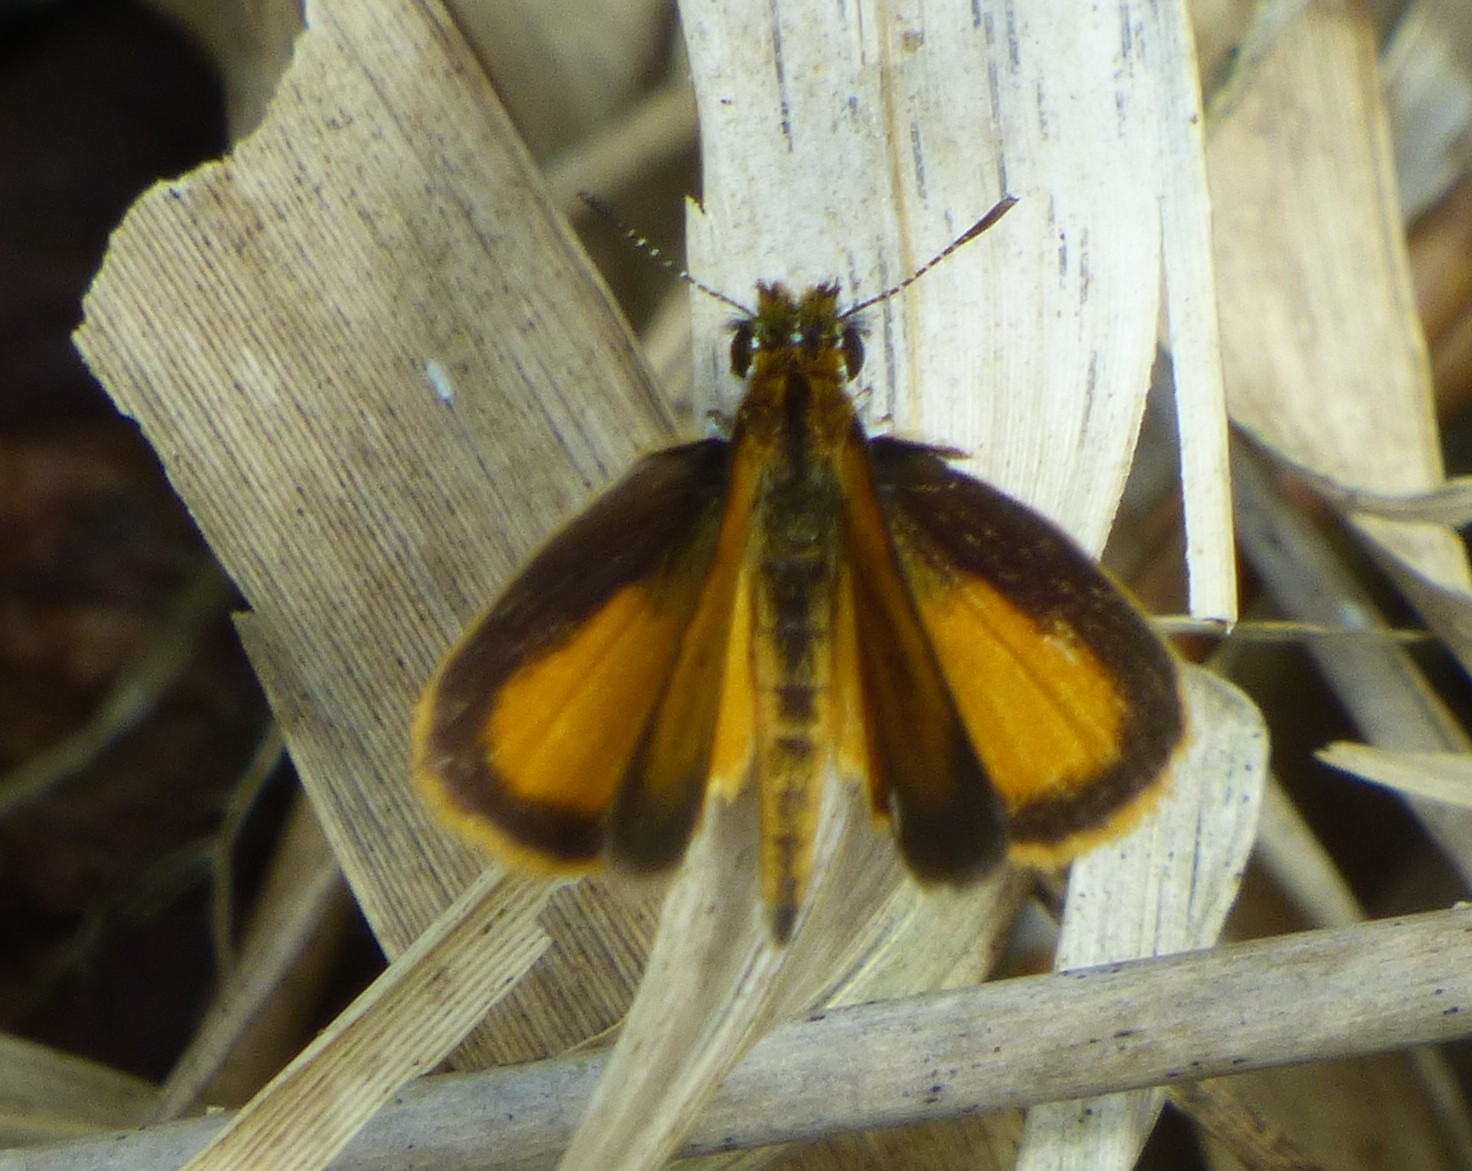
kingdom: Animalia
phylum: Arthropoda
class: Insecta
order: Lepidoptera
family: Hesperiidae
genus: Ancyloxypha
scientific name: Ancyloxypha numitor
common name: Least skipper
